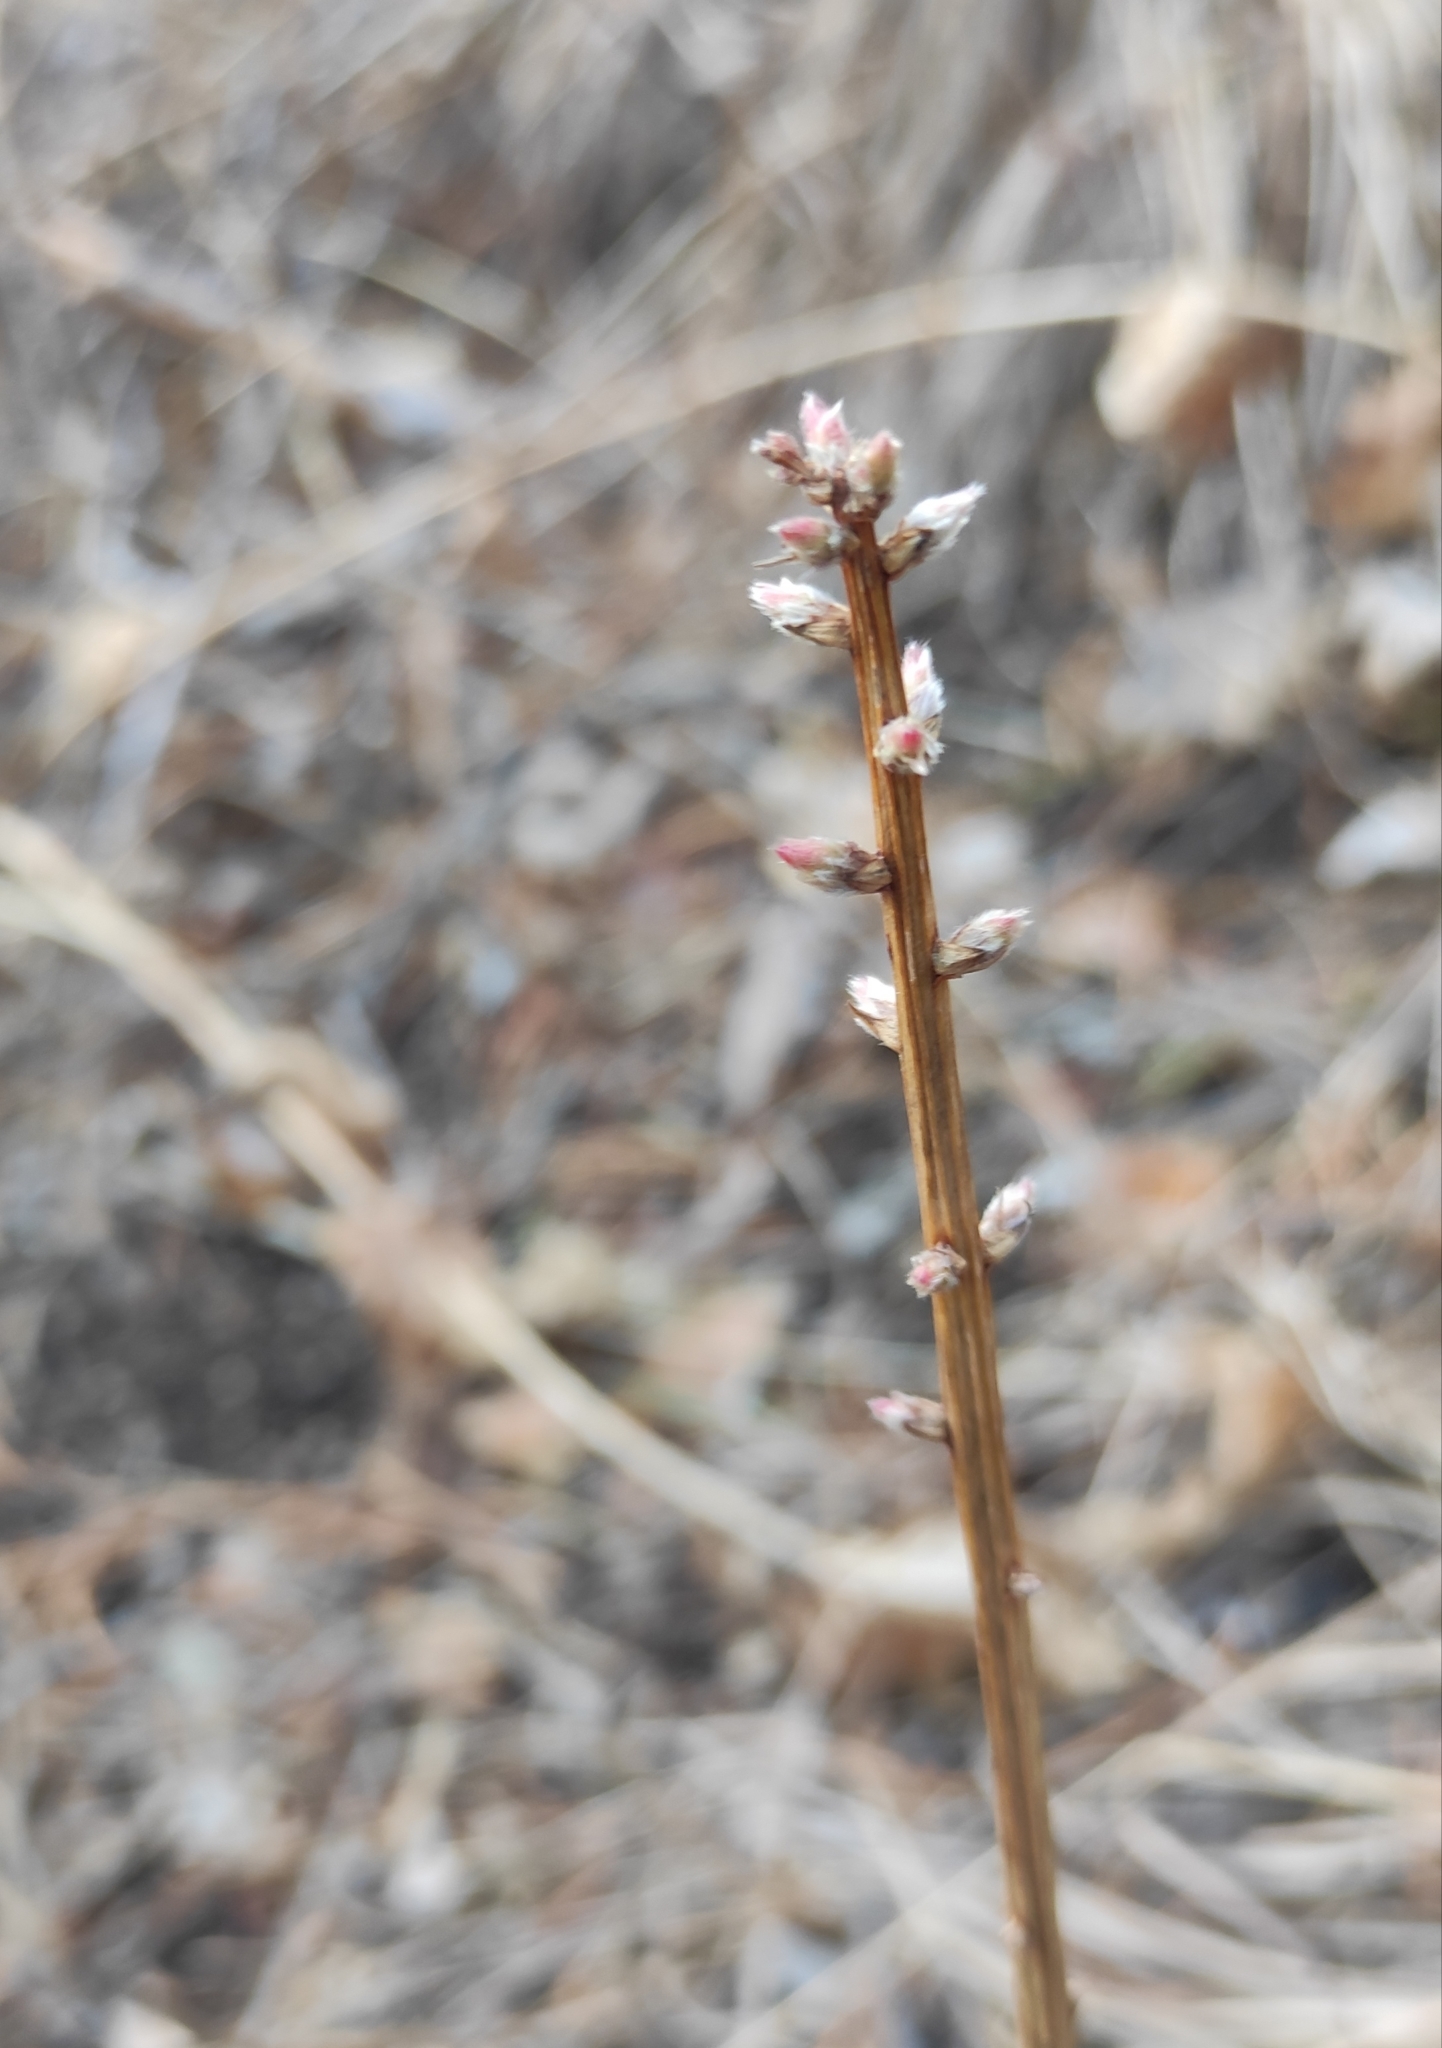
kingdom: Plantae
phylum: Tracheophyta
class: Magnoliopsida
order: Fabales
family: Fabaceae
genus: Caragana
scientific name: Caragana arborescens
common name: Siberian peashrub
